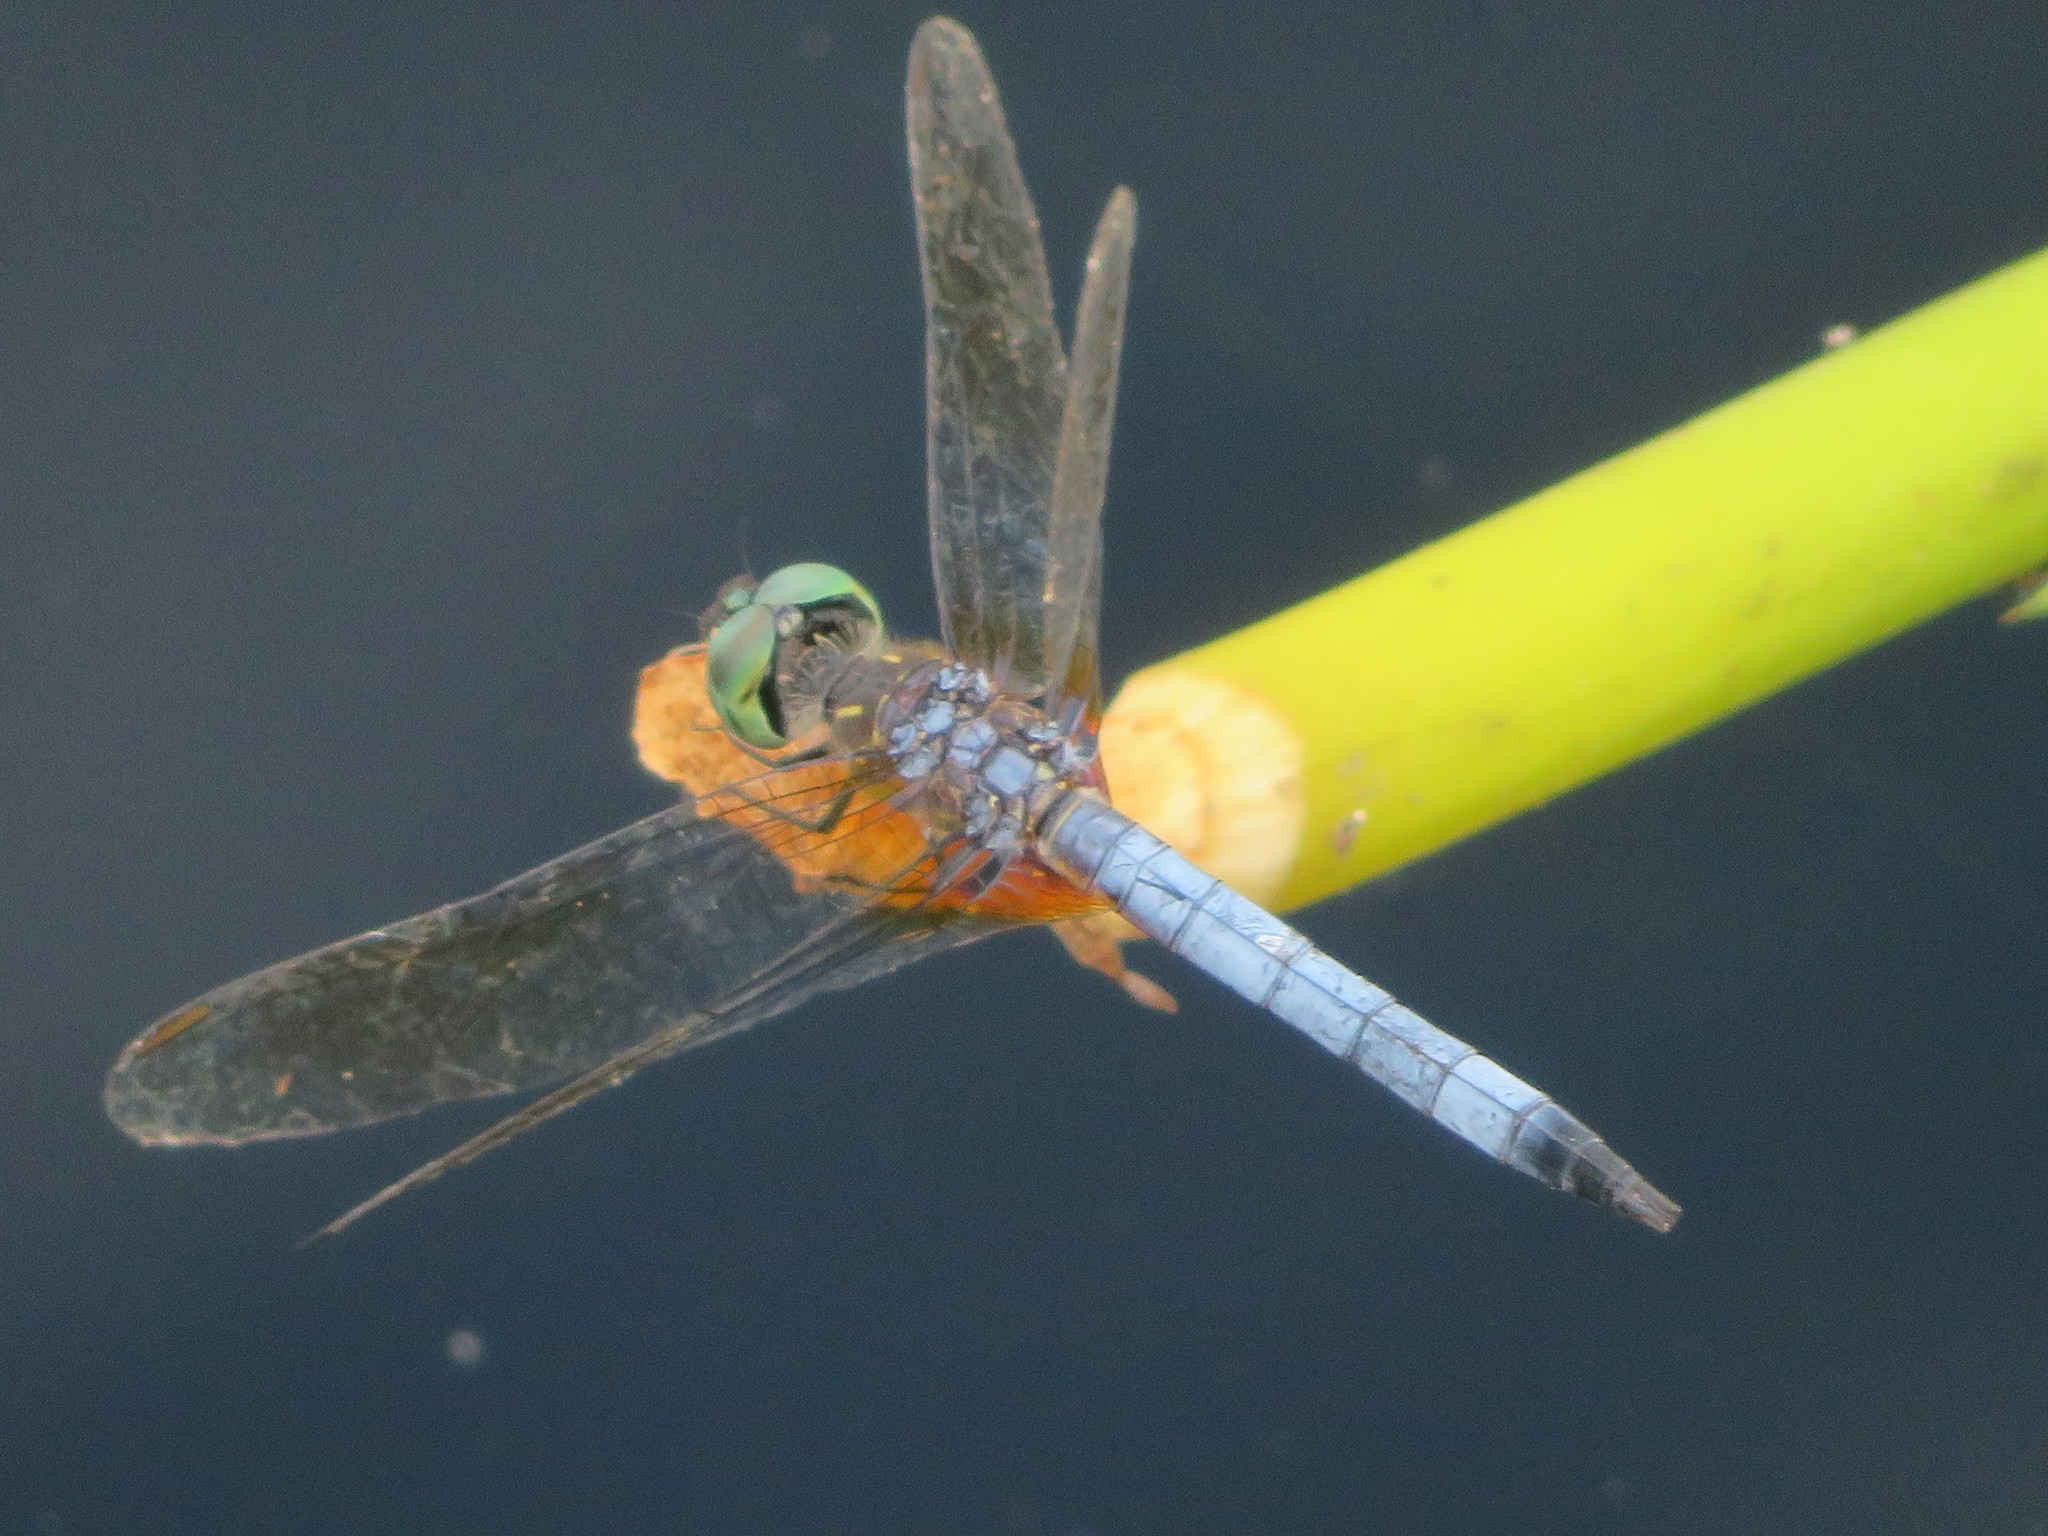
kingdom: Animalia
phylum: Arthropoda
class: Insecta
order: Odonata
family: Libellulidae
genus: Pachydiplax
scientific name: Pachydiplax longipennis
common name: Blue dasher
